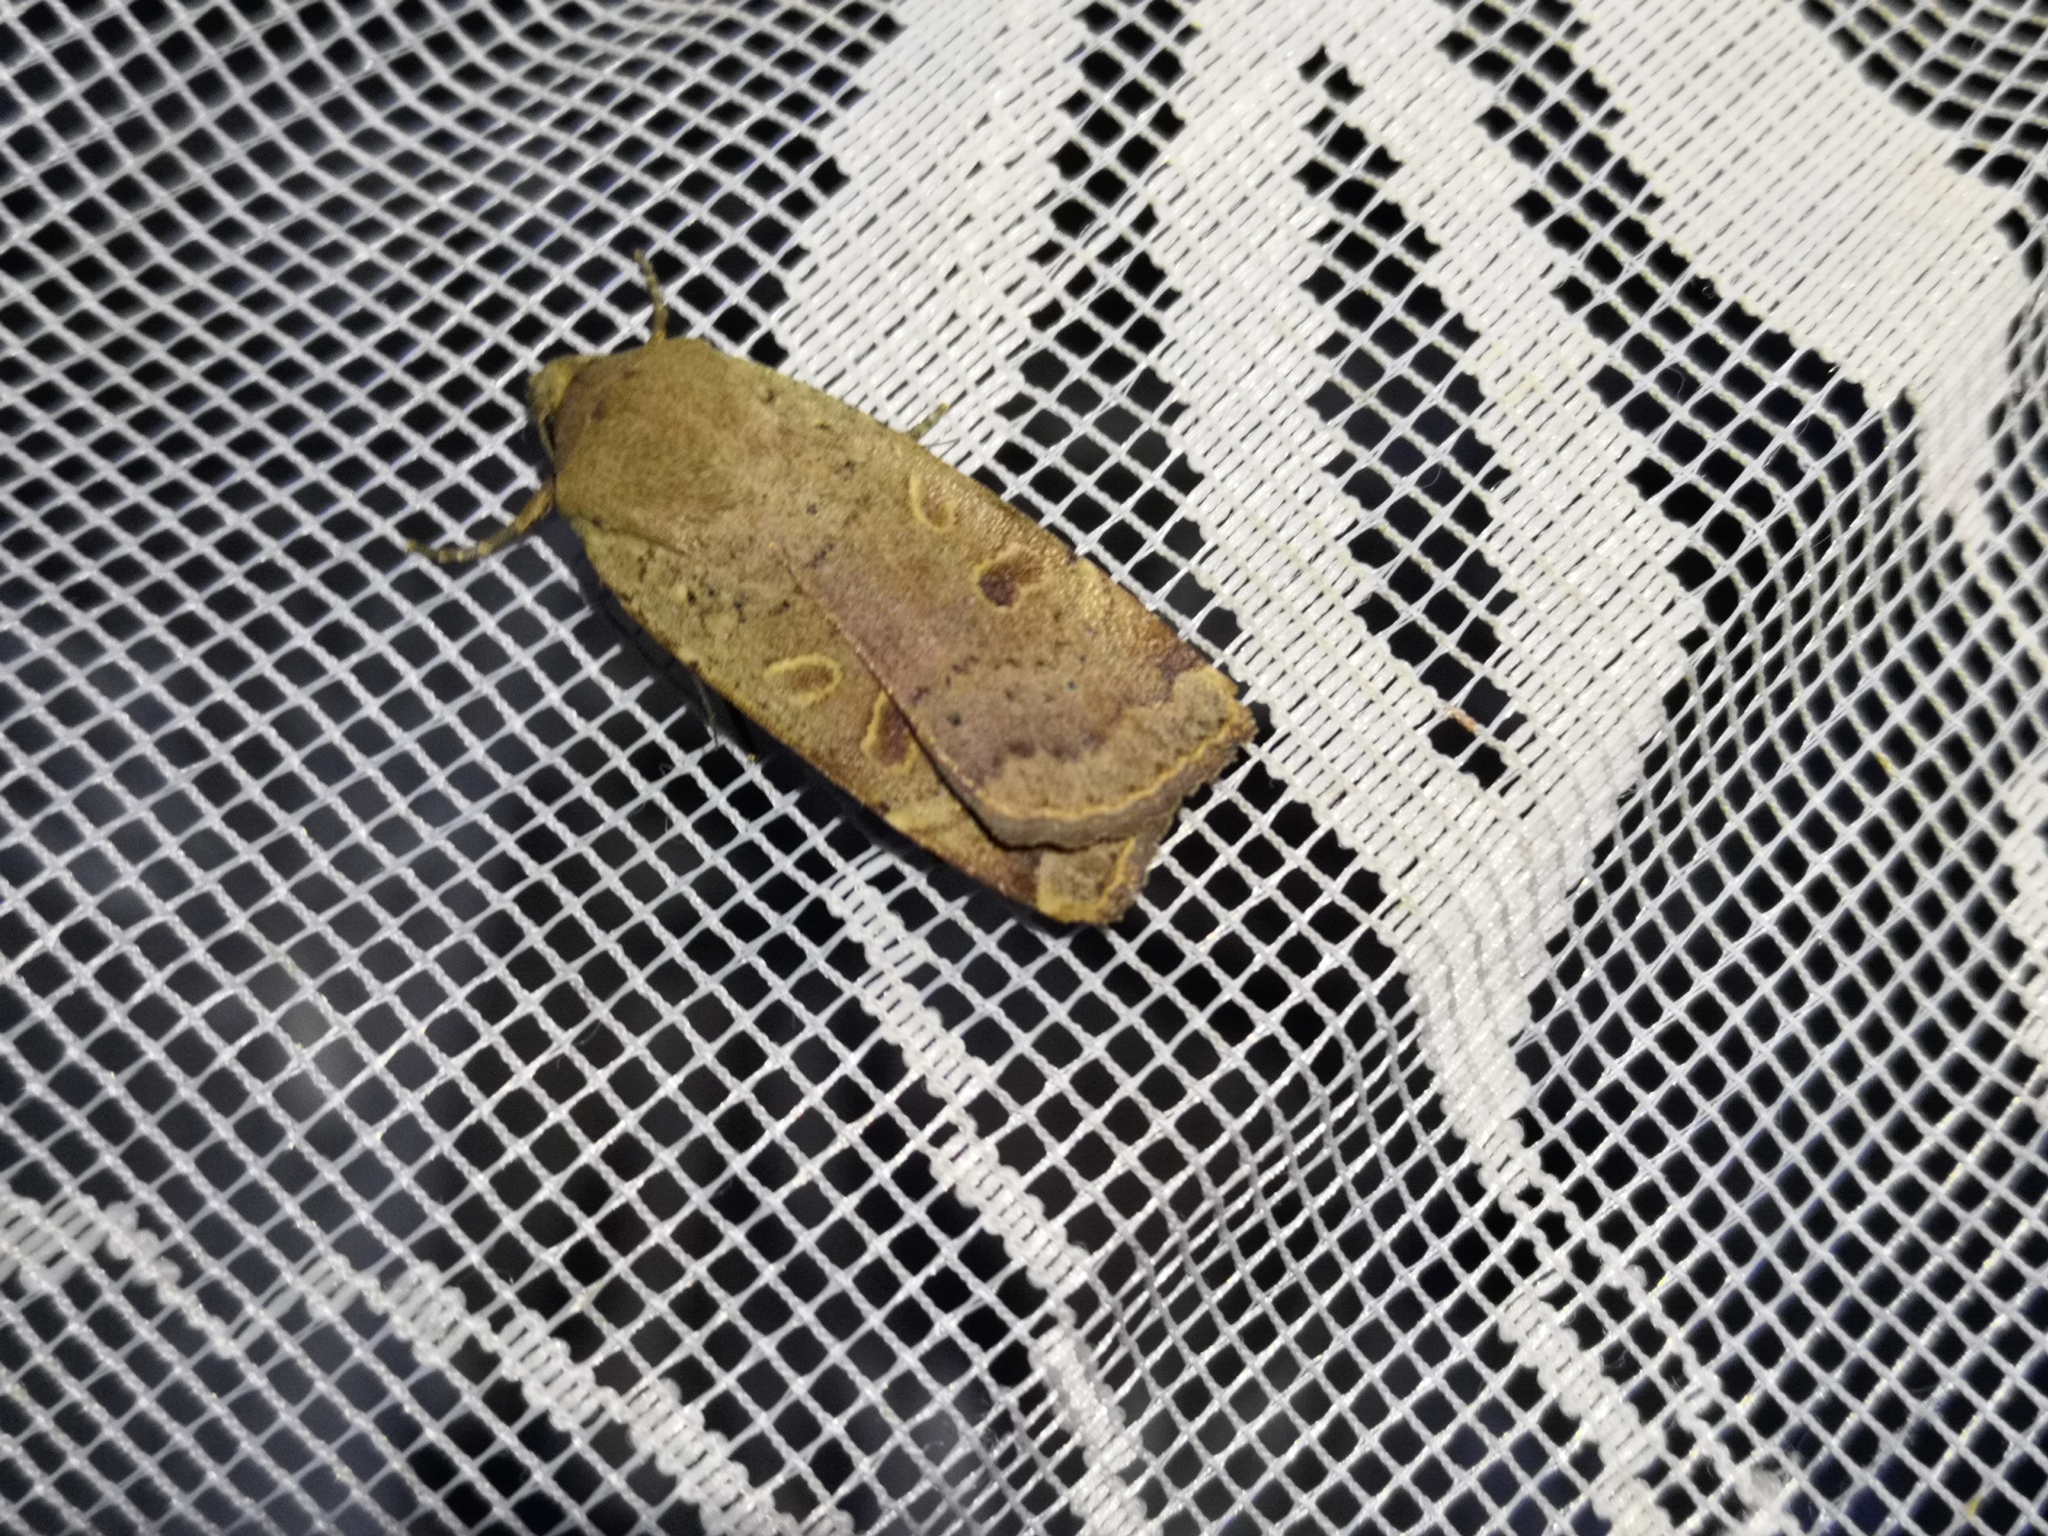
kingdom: Animalia
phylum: Arthropoda
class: Insecta
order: Lepidoptera
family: Noctuidae
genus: Noctua
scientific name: Noctua comes
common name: Lesser yellow underwing
